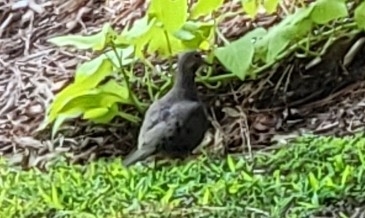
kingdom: Animalia
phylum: Chordata
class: Aves
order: Columbiformes
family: Columbidae
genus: Zenaida
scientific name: Zenaida macroura
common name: Mourning dove
